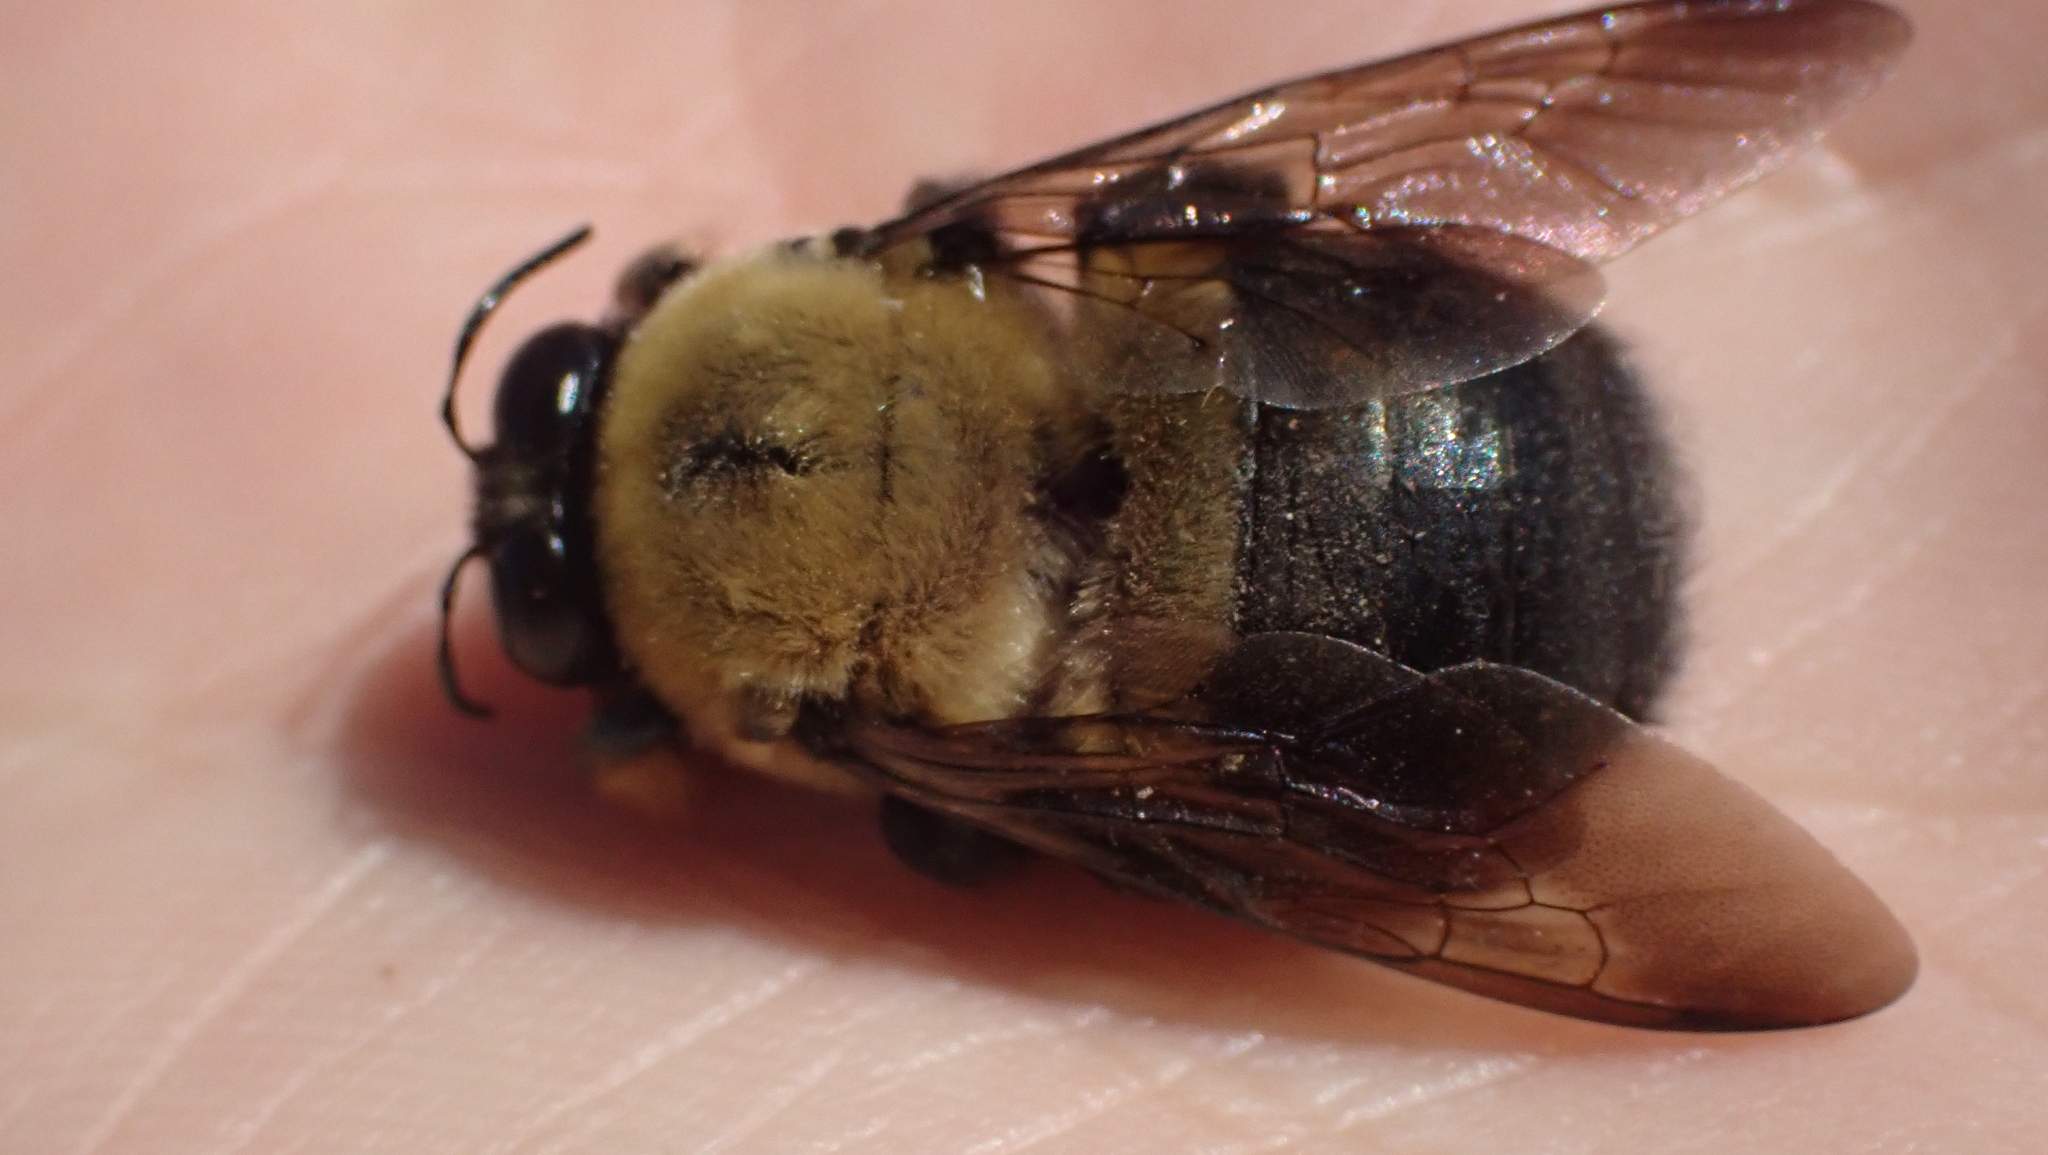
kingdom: Animalia
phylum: Arthropoda
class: Insecta
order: Hymenoptera
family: Apidae
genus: Xylocopa
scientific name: Xylocopa virginica
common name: Carpenter bee
